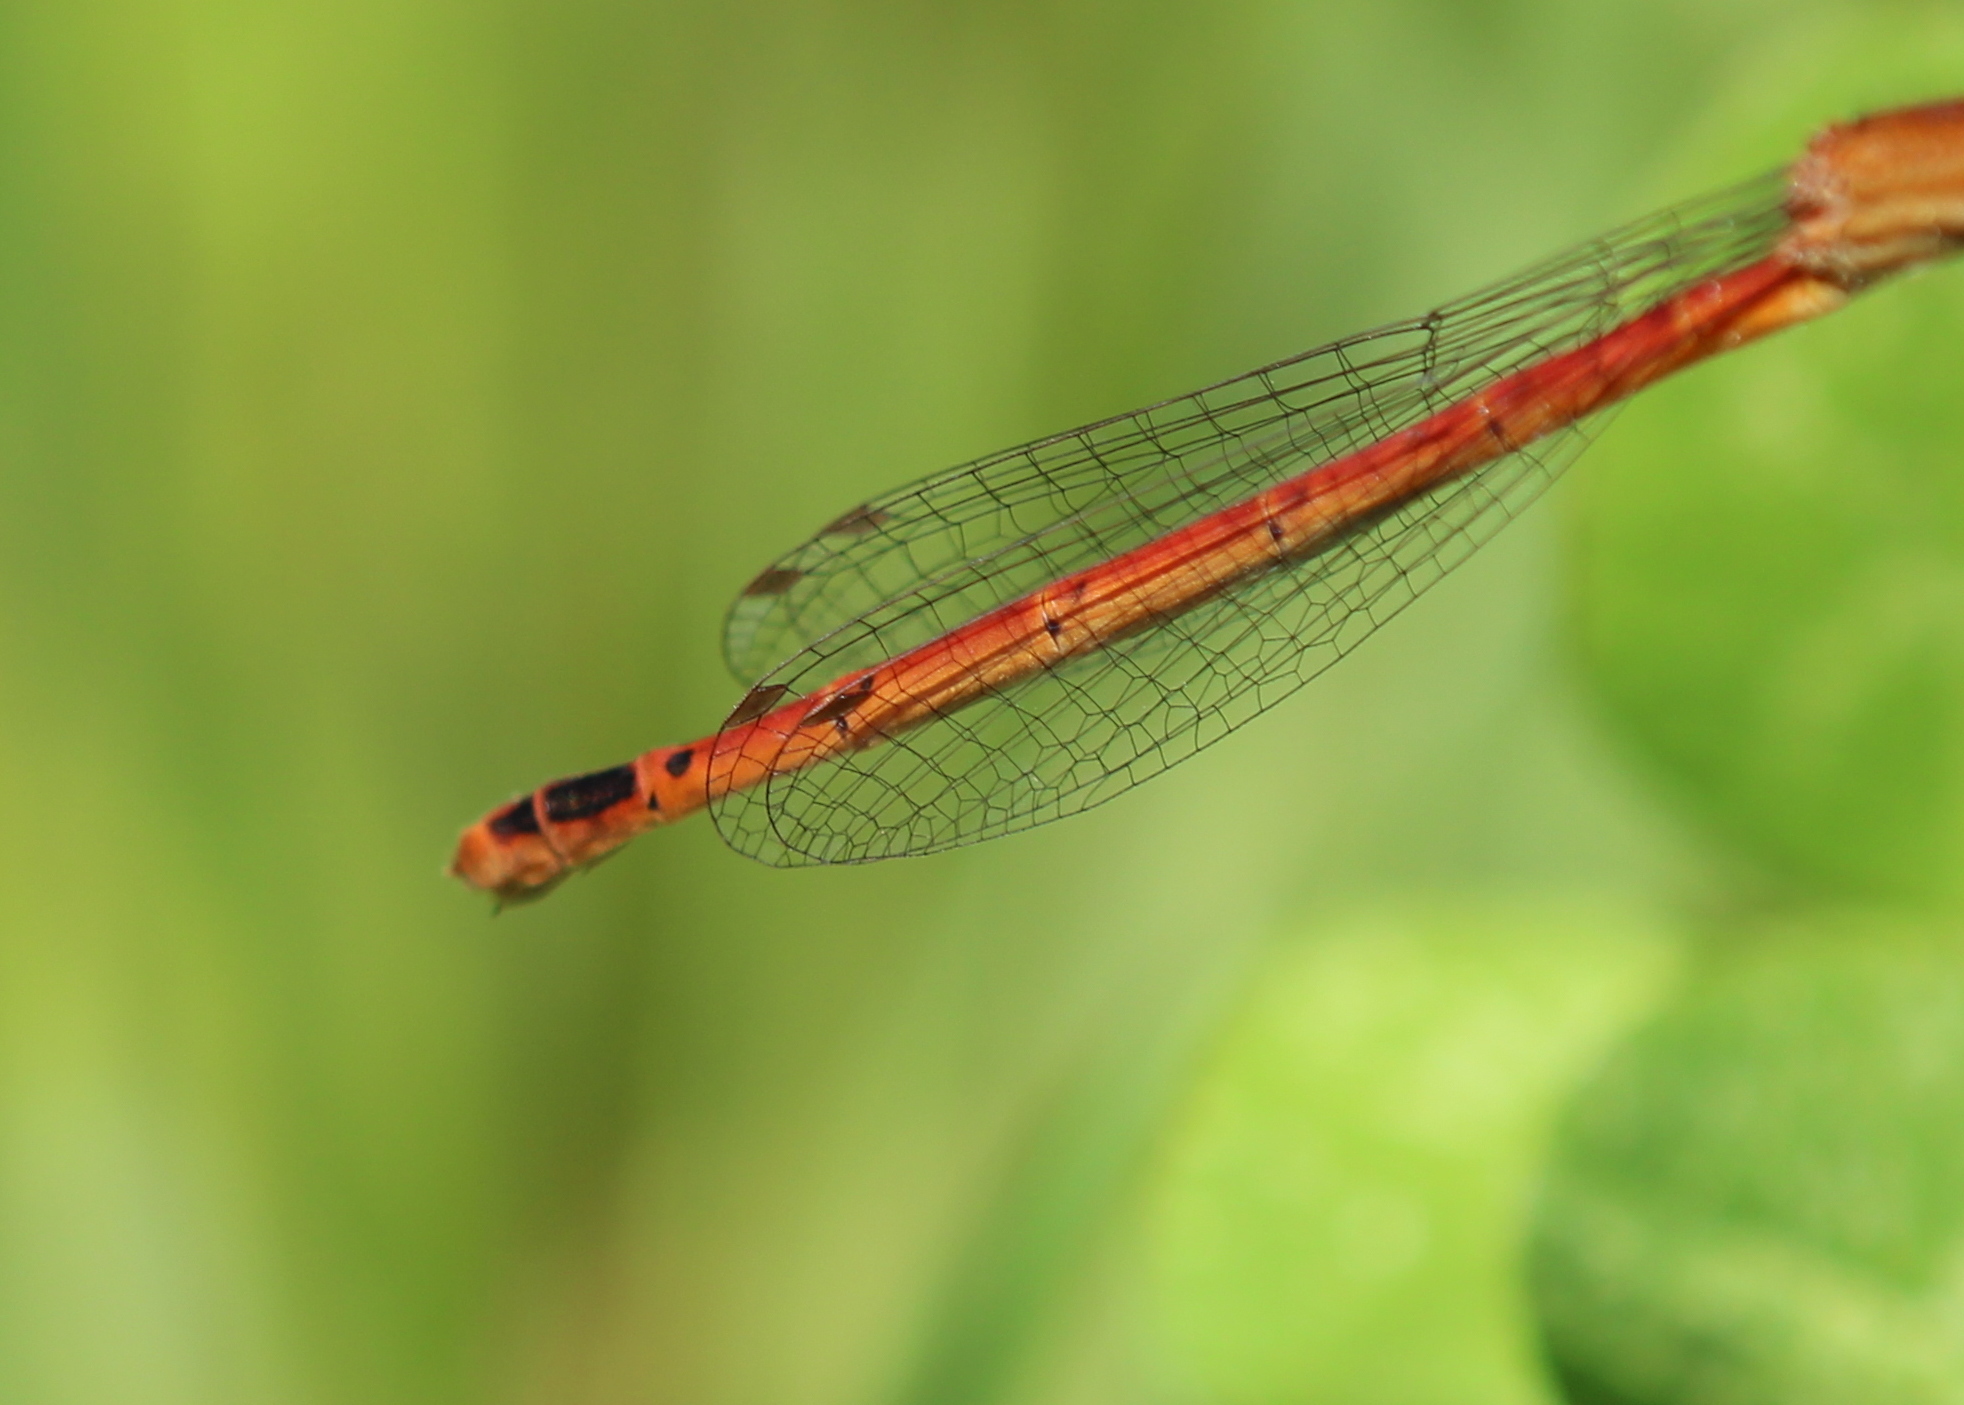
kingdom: Animalia
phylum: Arthropoda
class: Insecta
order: Odonata
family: Coenagrionidae
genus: Amphiagrion
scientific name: Amphiagrion saucium
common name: Eastern red damsel
